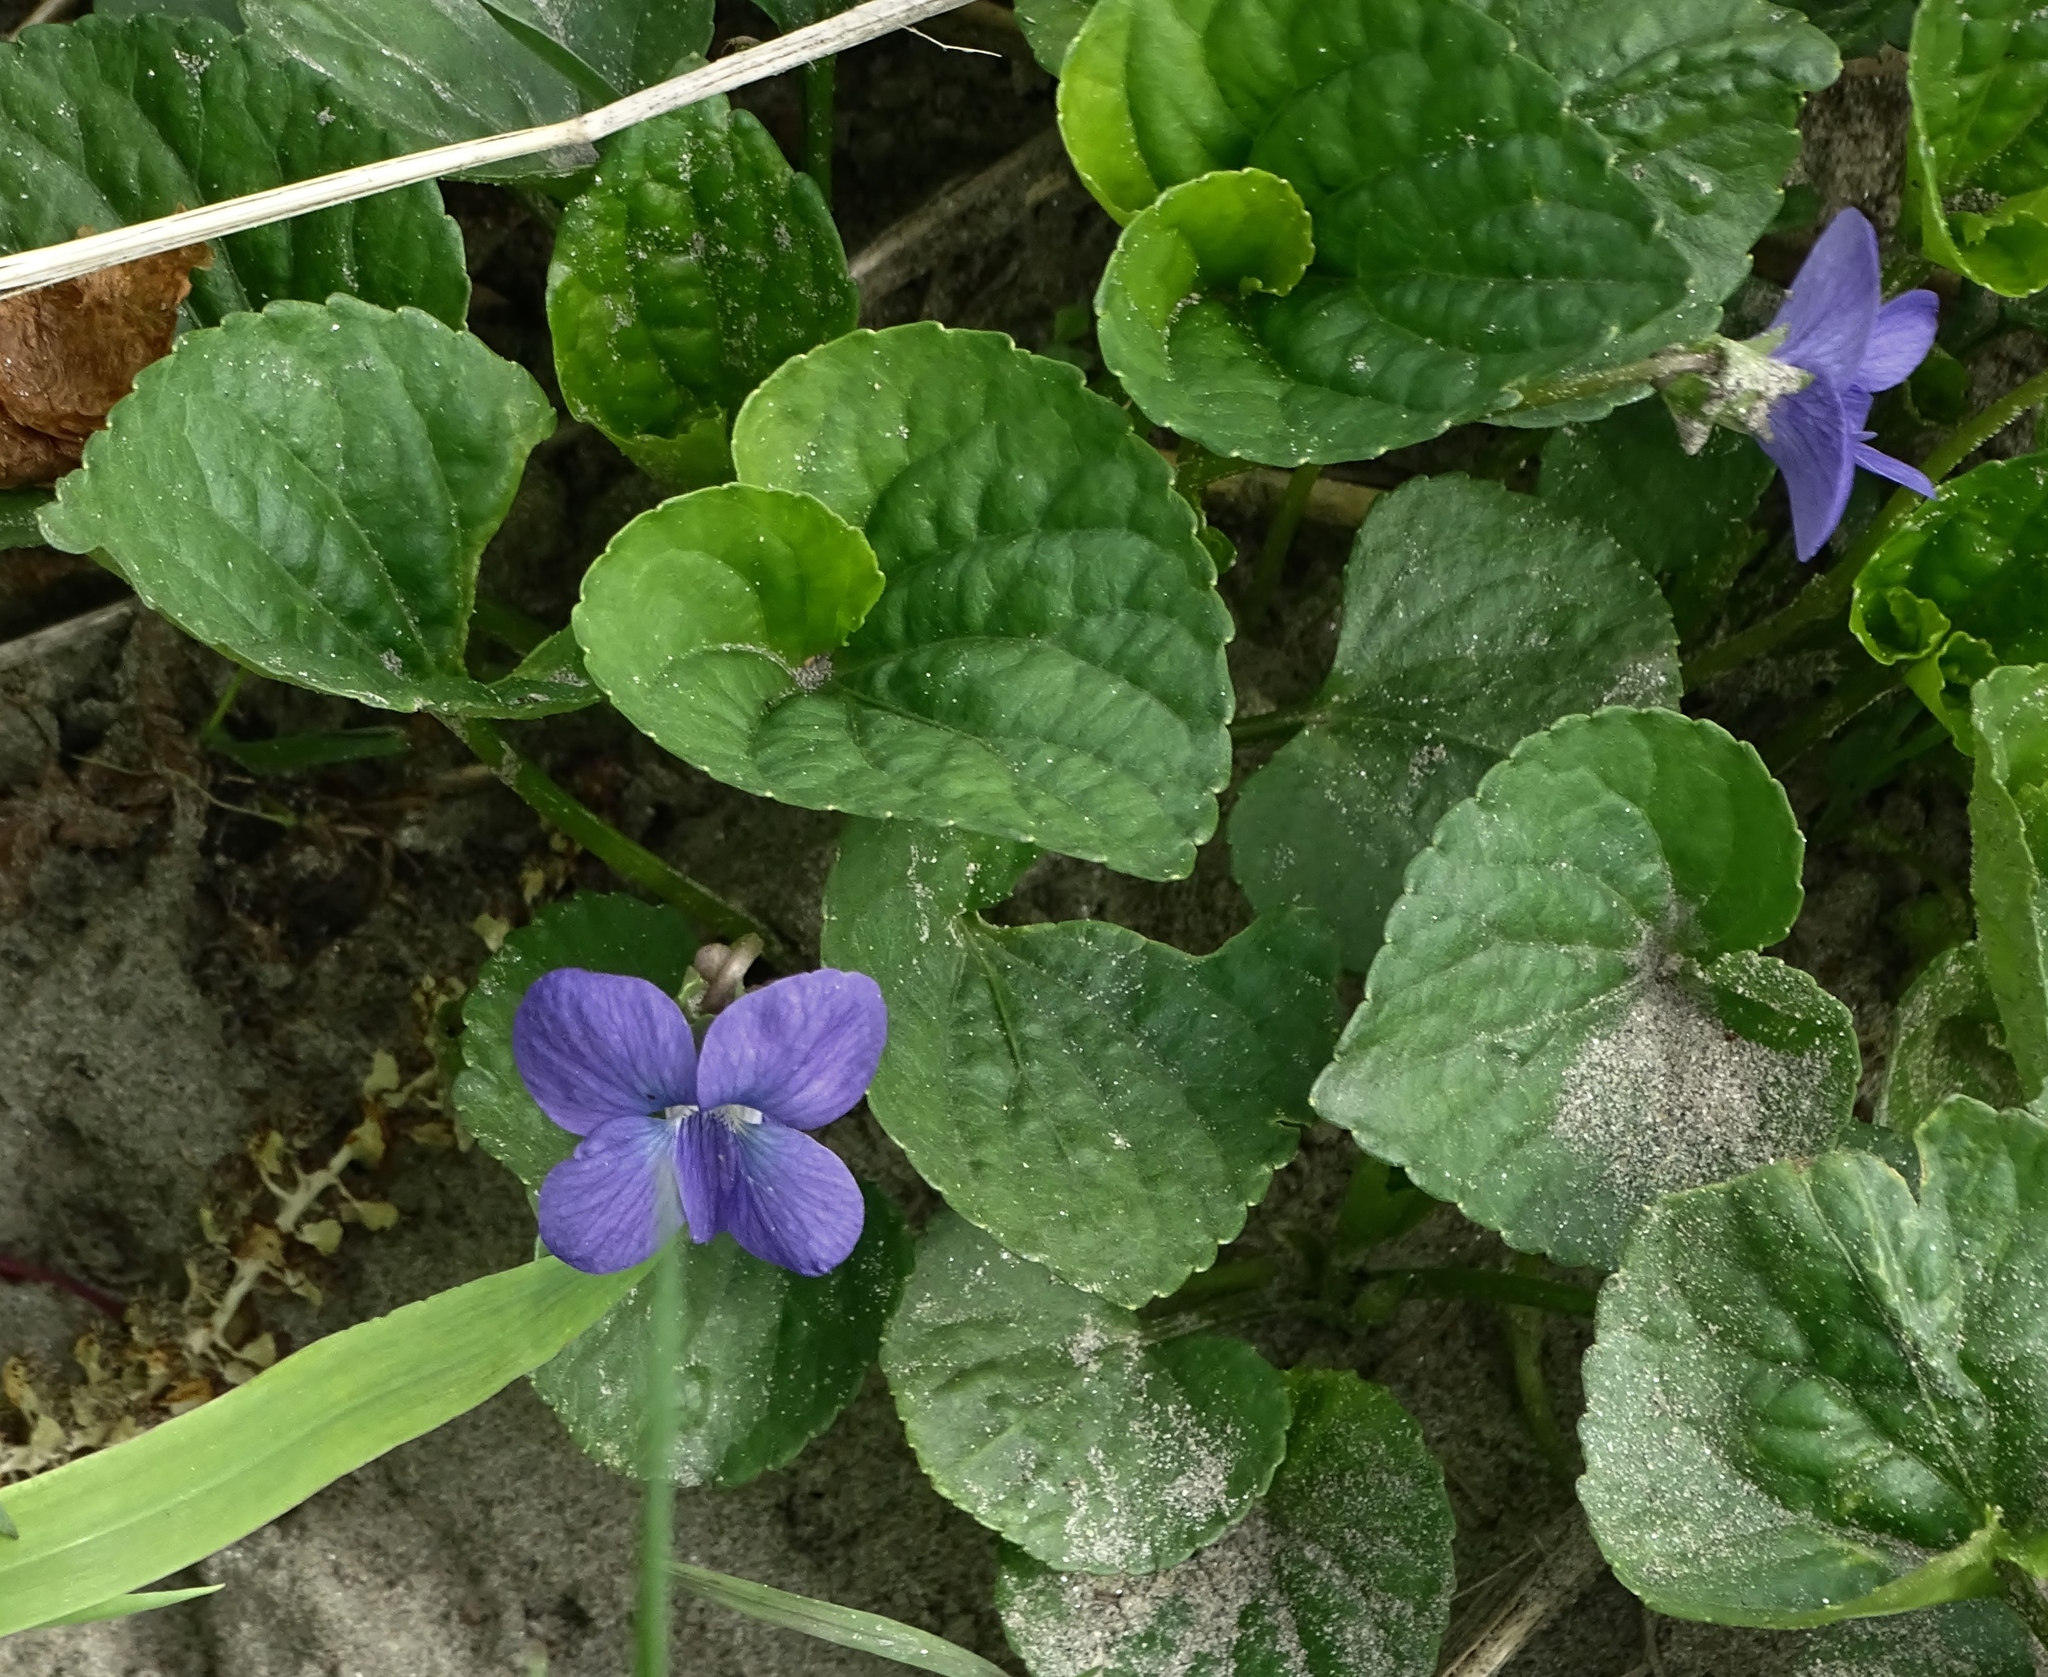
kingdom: Plantae
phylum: Tracheophyta
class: Magnoliopsida
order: Malpighiales
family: Violaceae
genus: Viola
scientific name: Viola sororia
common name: Dooryard violet
